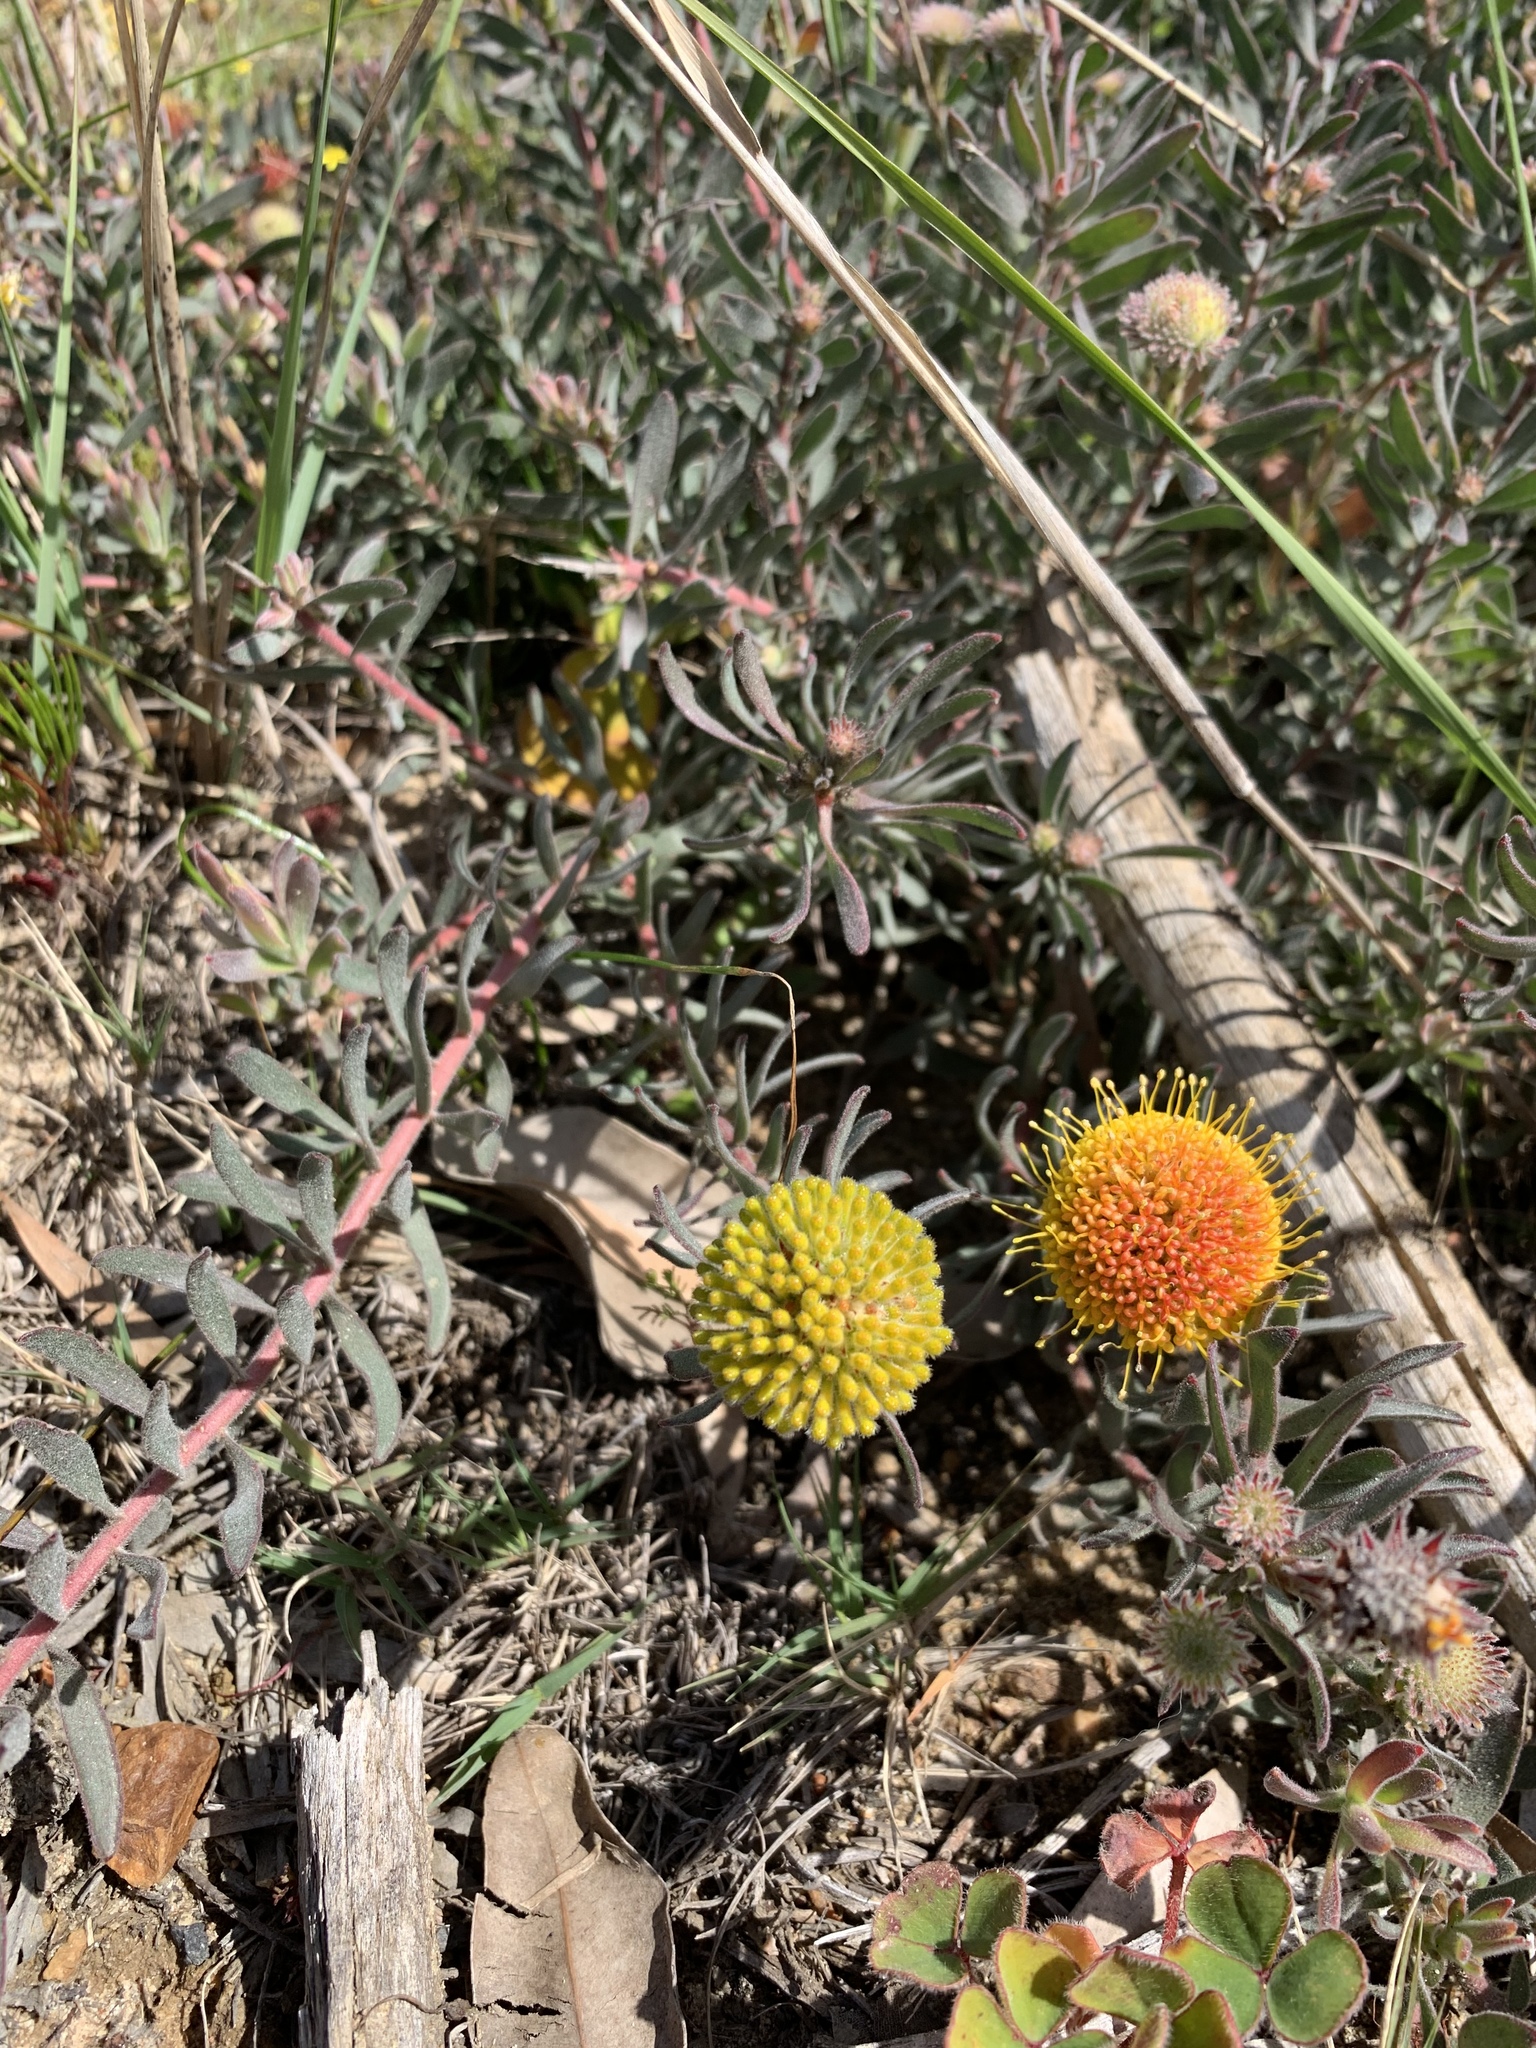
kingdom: Plantae
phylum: Tracheophyta
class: Magnoliopsida
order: Proteales
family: Proteaceae
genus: Leucospermum
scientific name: Leucospermum prostratum
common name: Yellow-trailing pincushion
